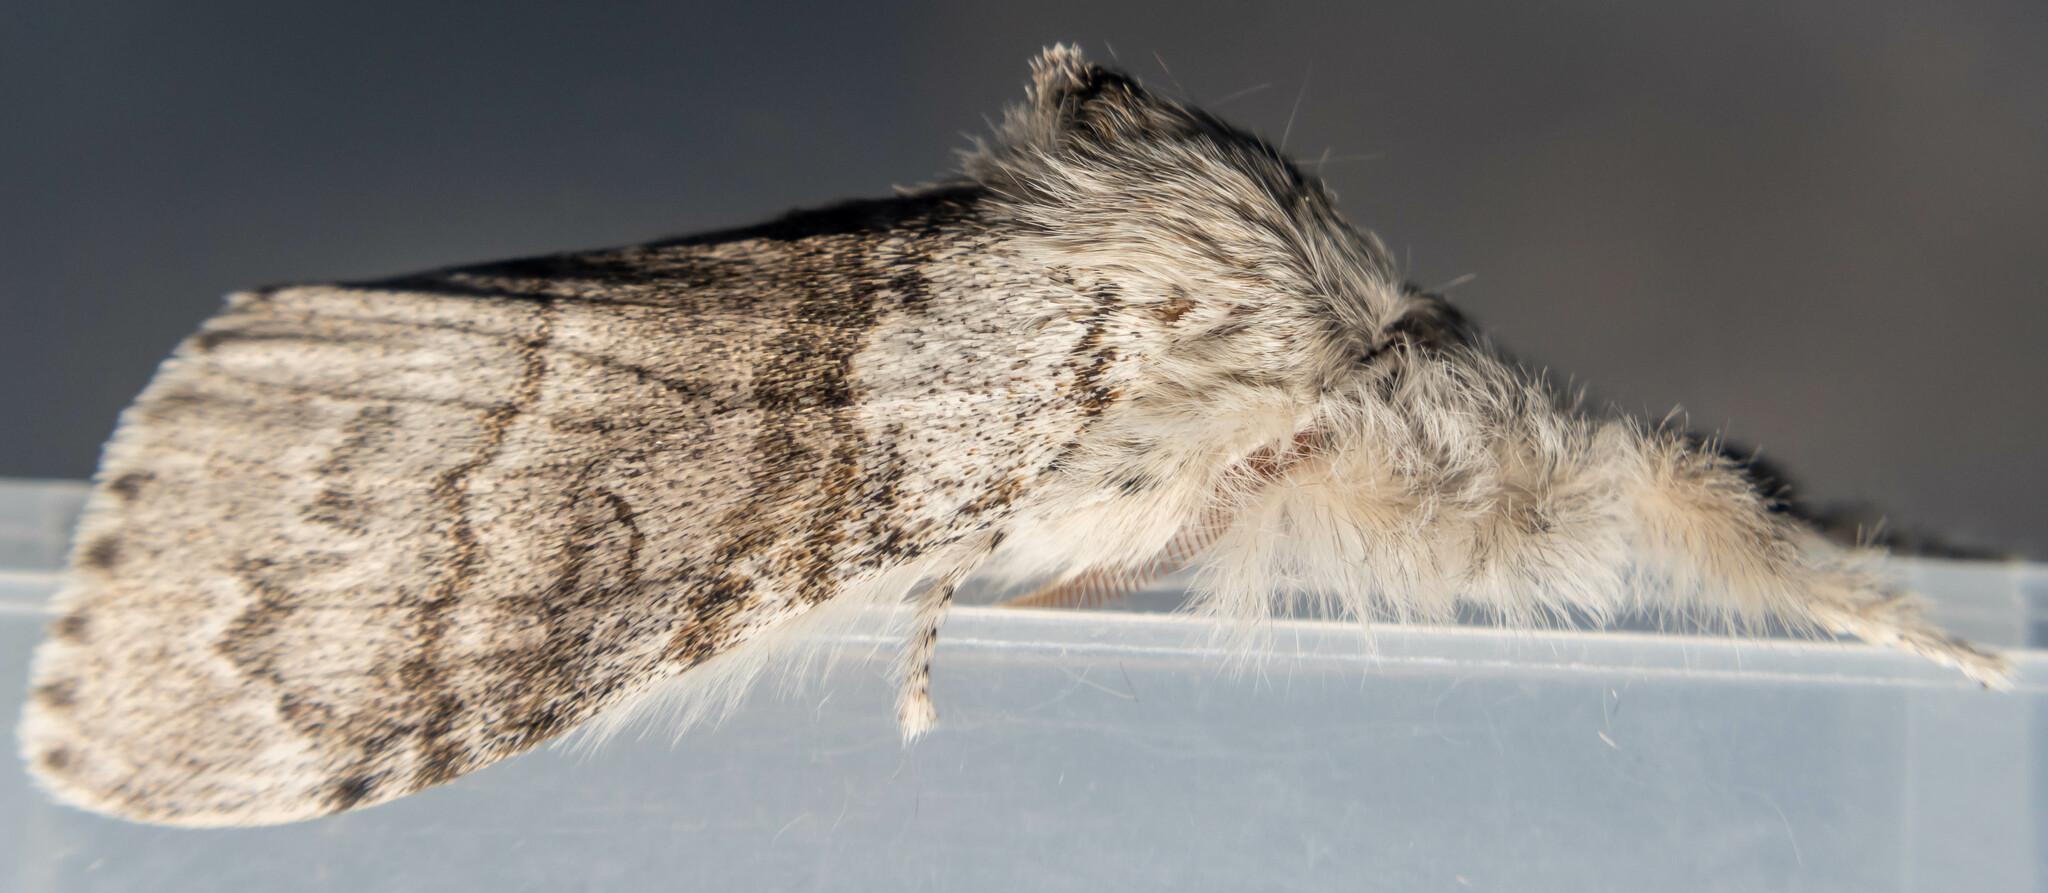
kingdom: Animalia
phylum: Arthropoda
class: Insecta
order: Lepidoptera
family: Erebidae
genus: Calliteara
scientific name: Calliteara pudibunda
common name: Pale tussock
